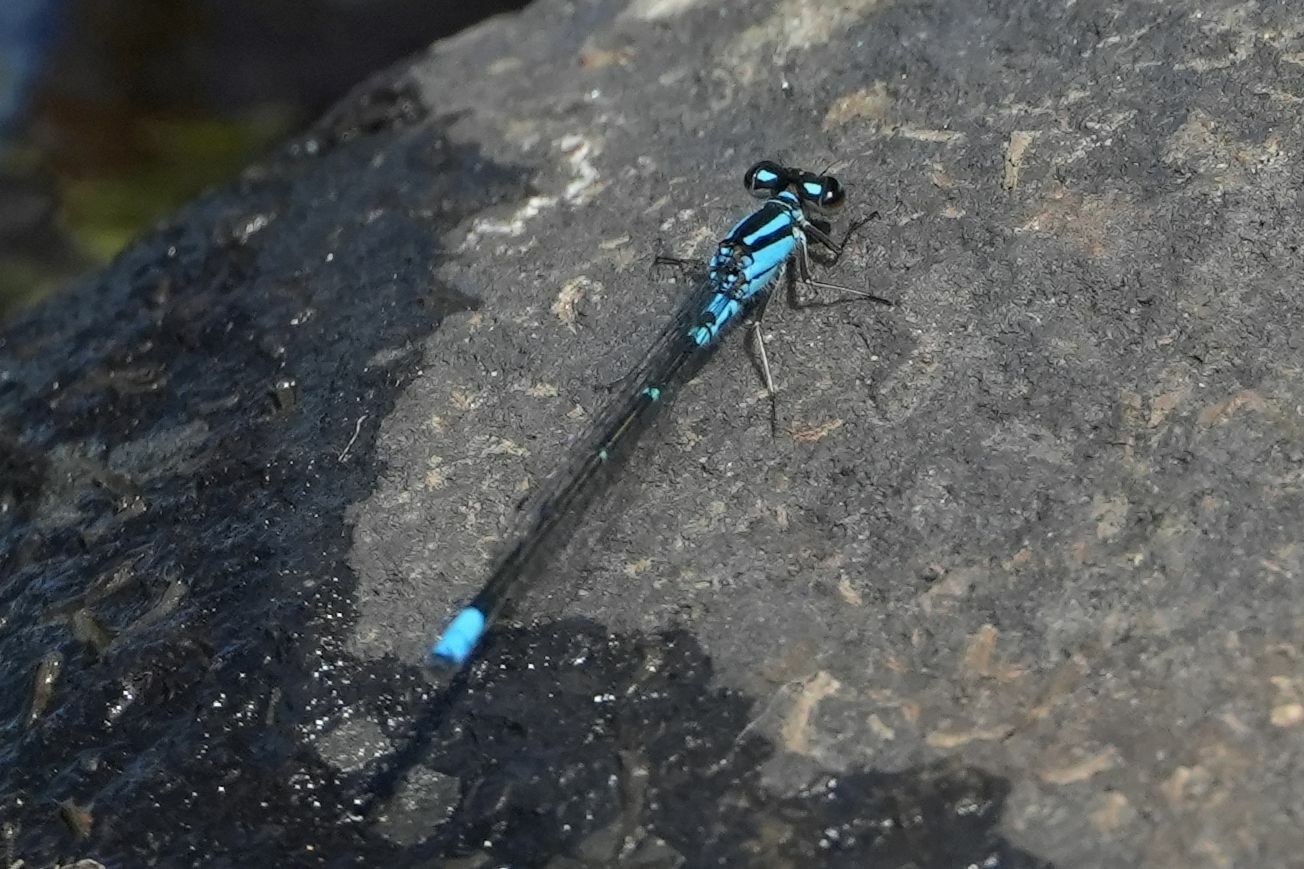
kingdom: Animalia
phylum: Arthropoda
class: Insecta
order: Odonata
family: Coenagrionidae
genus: Enallagma
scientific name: Enallagma geminatum
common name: Skimming bluet
